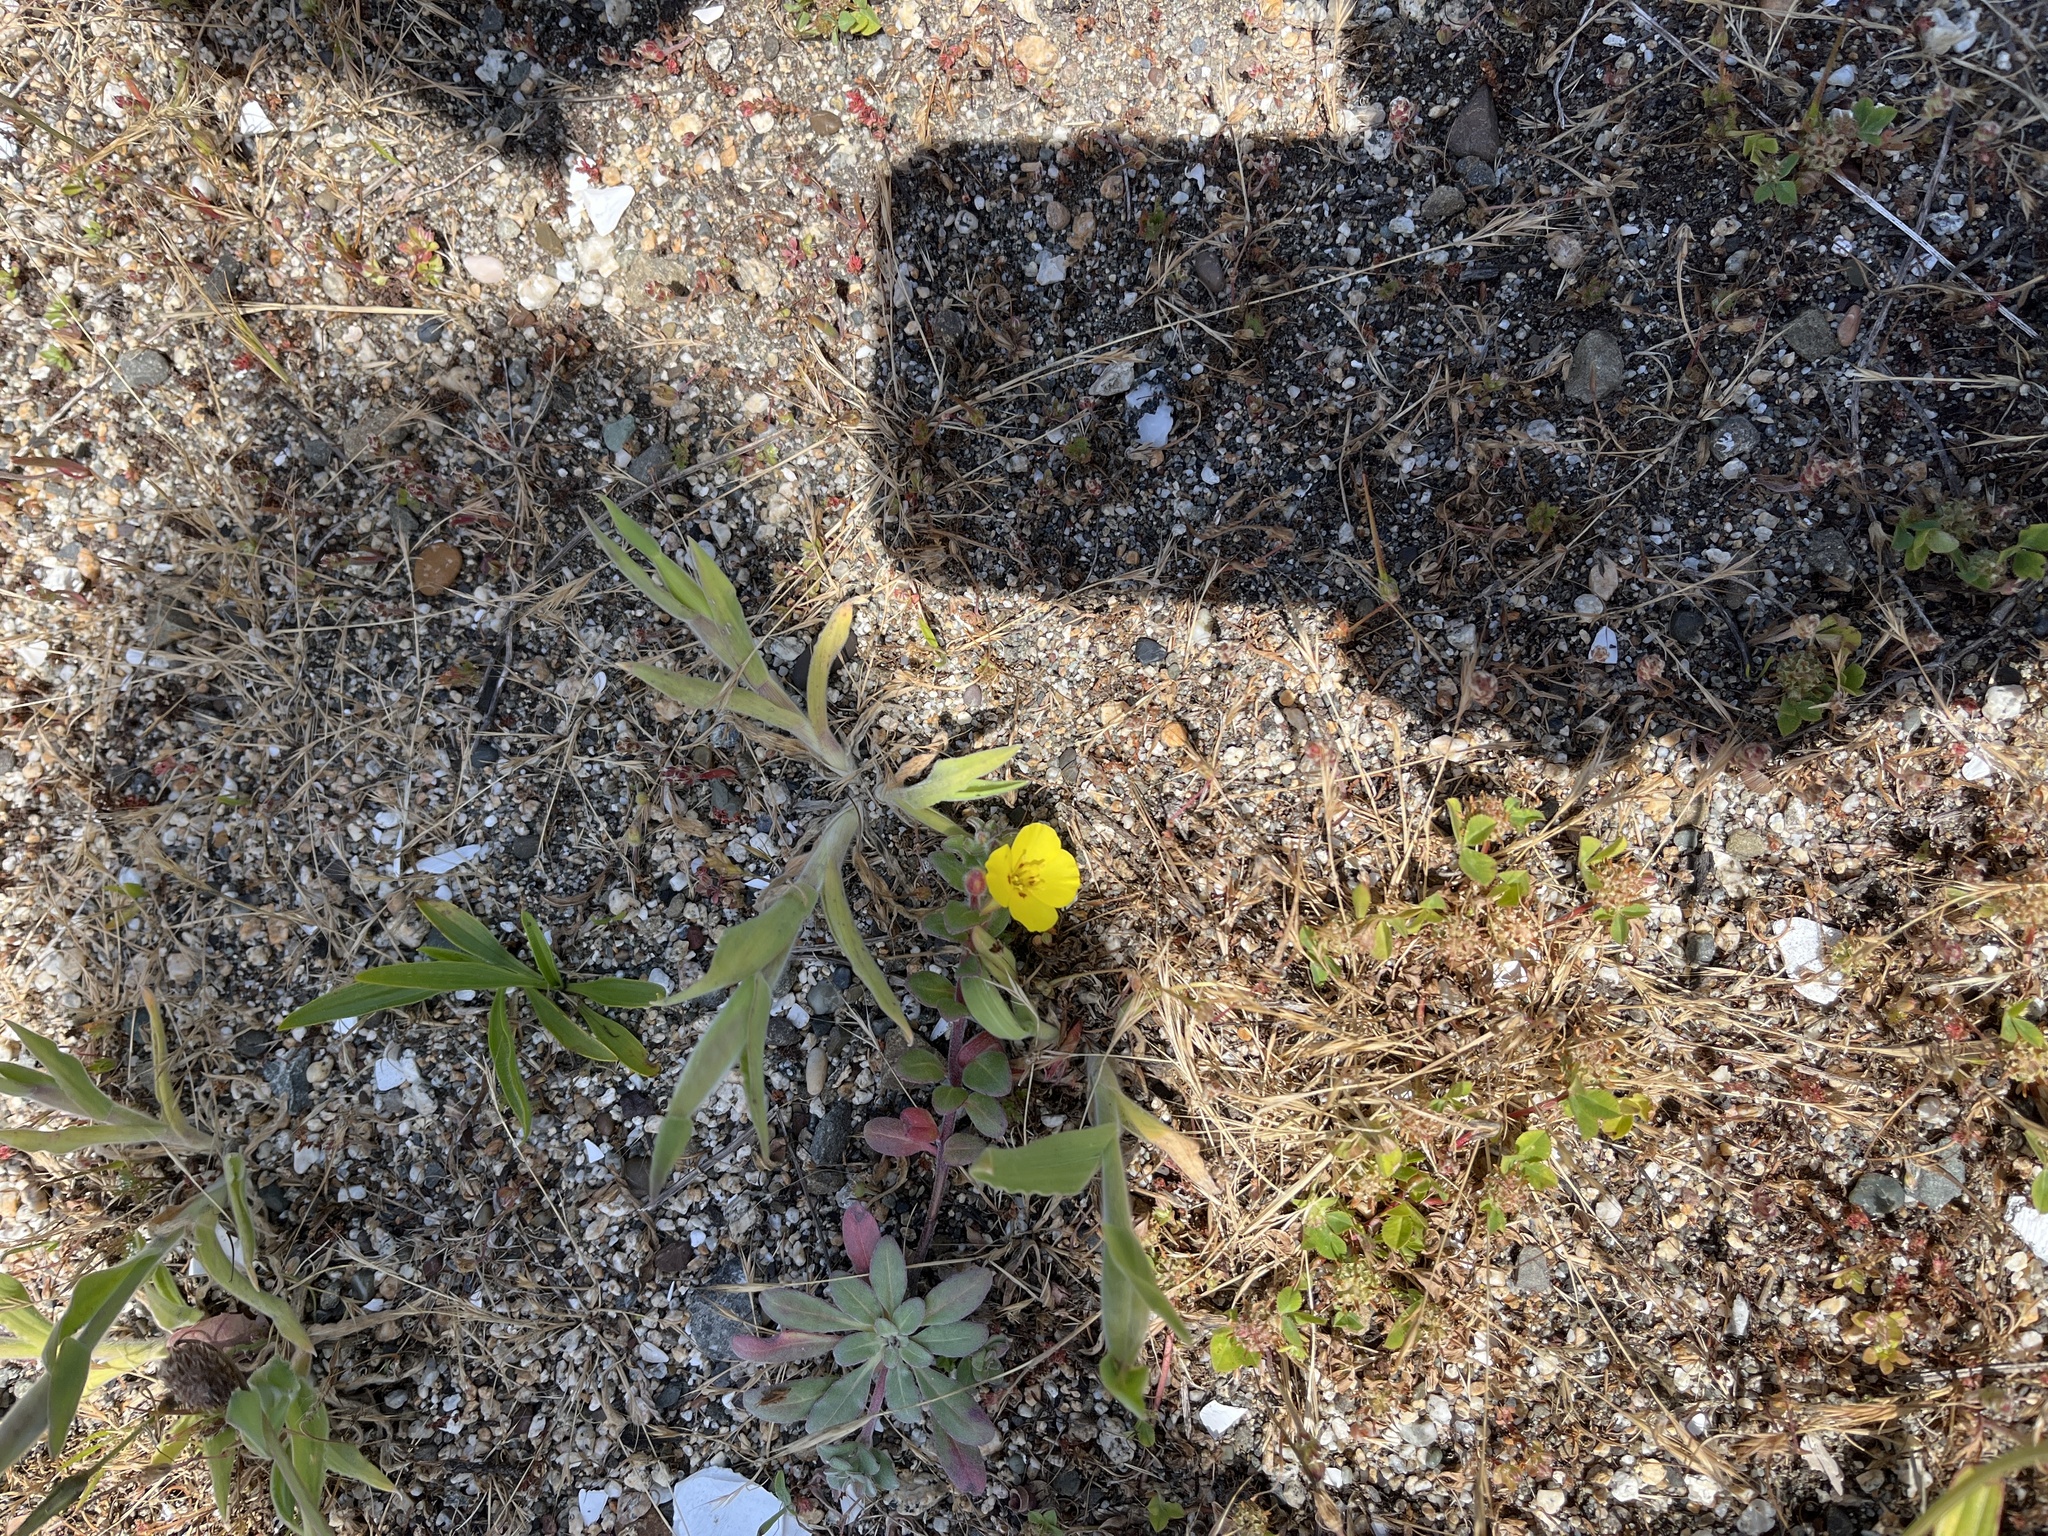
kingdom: Plantae
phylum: Tracheophyta
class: Magnoliopsida
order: Myrtales
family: Onagraceae
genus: Camissoniopsis
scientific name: Camissoniopsis cheiranthifolia
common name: Beach suncup
